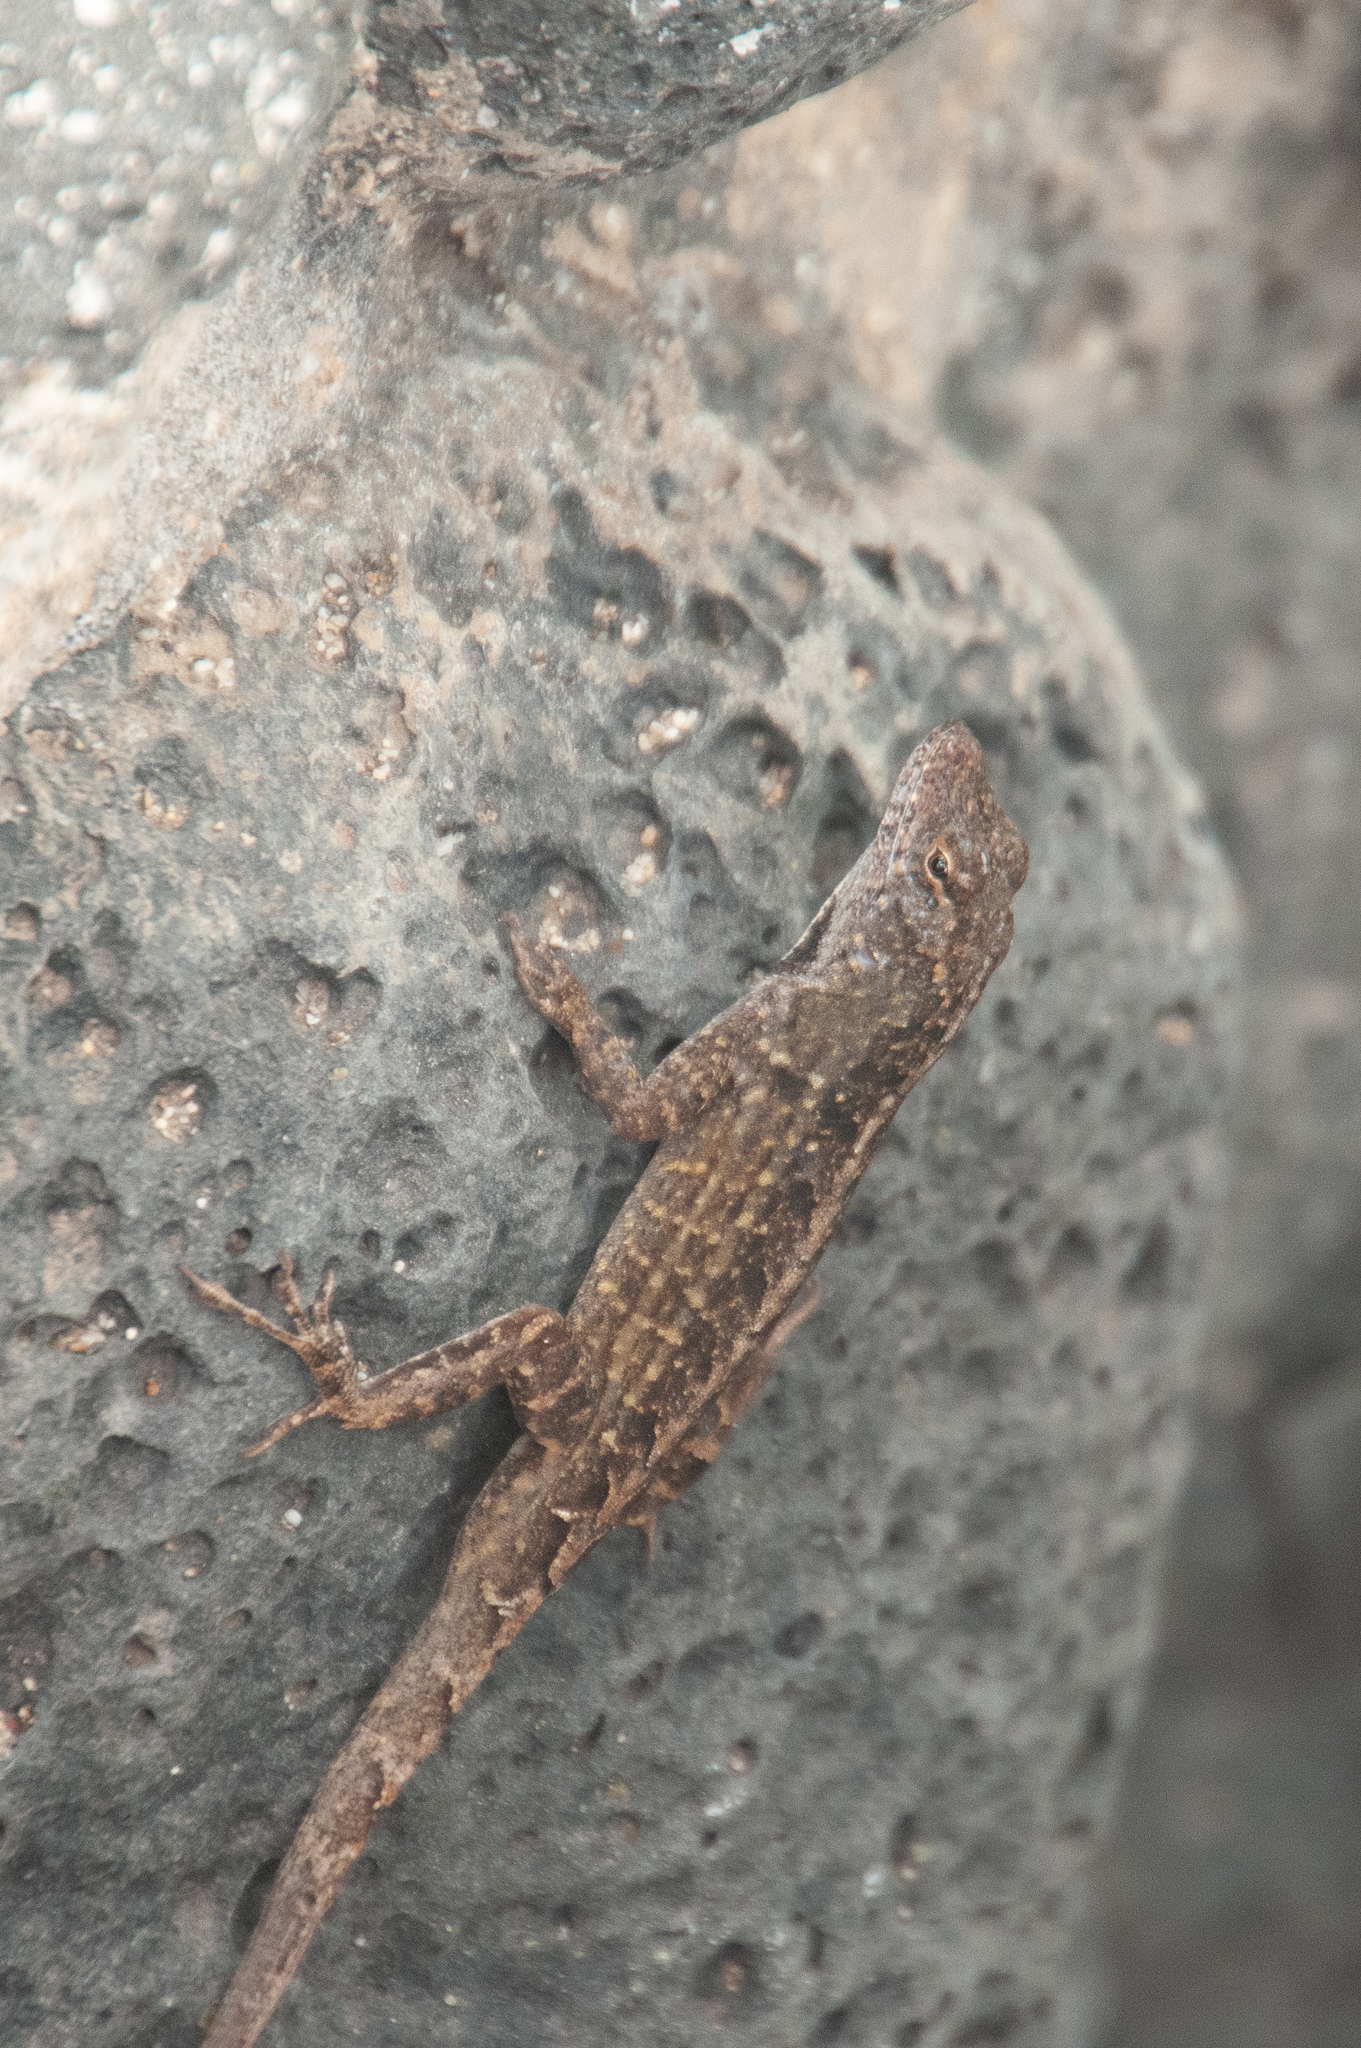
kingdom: Animalia
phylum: Chordata
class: Squamata
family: Dactyloidae
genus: Anolis
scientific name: Anolis sagrei
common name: Brown anole
